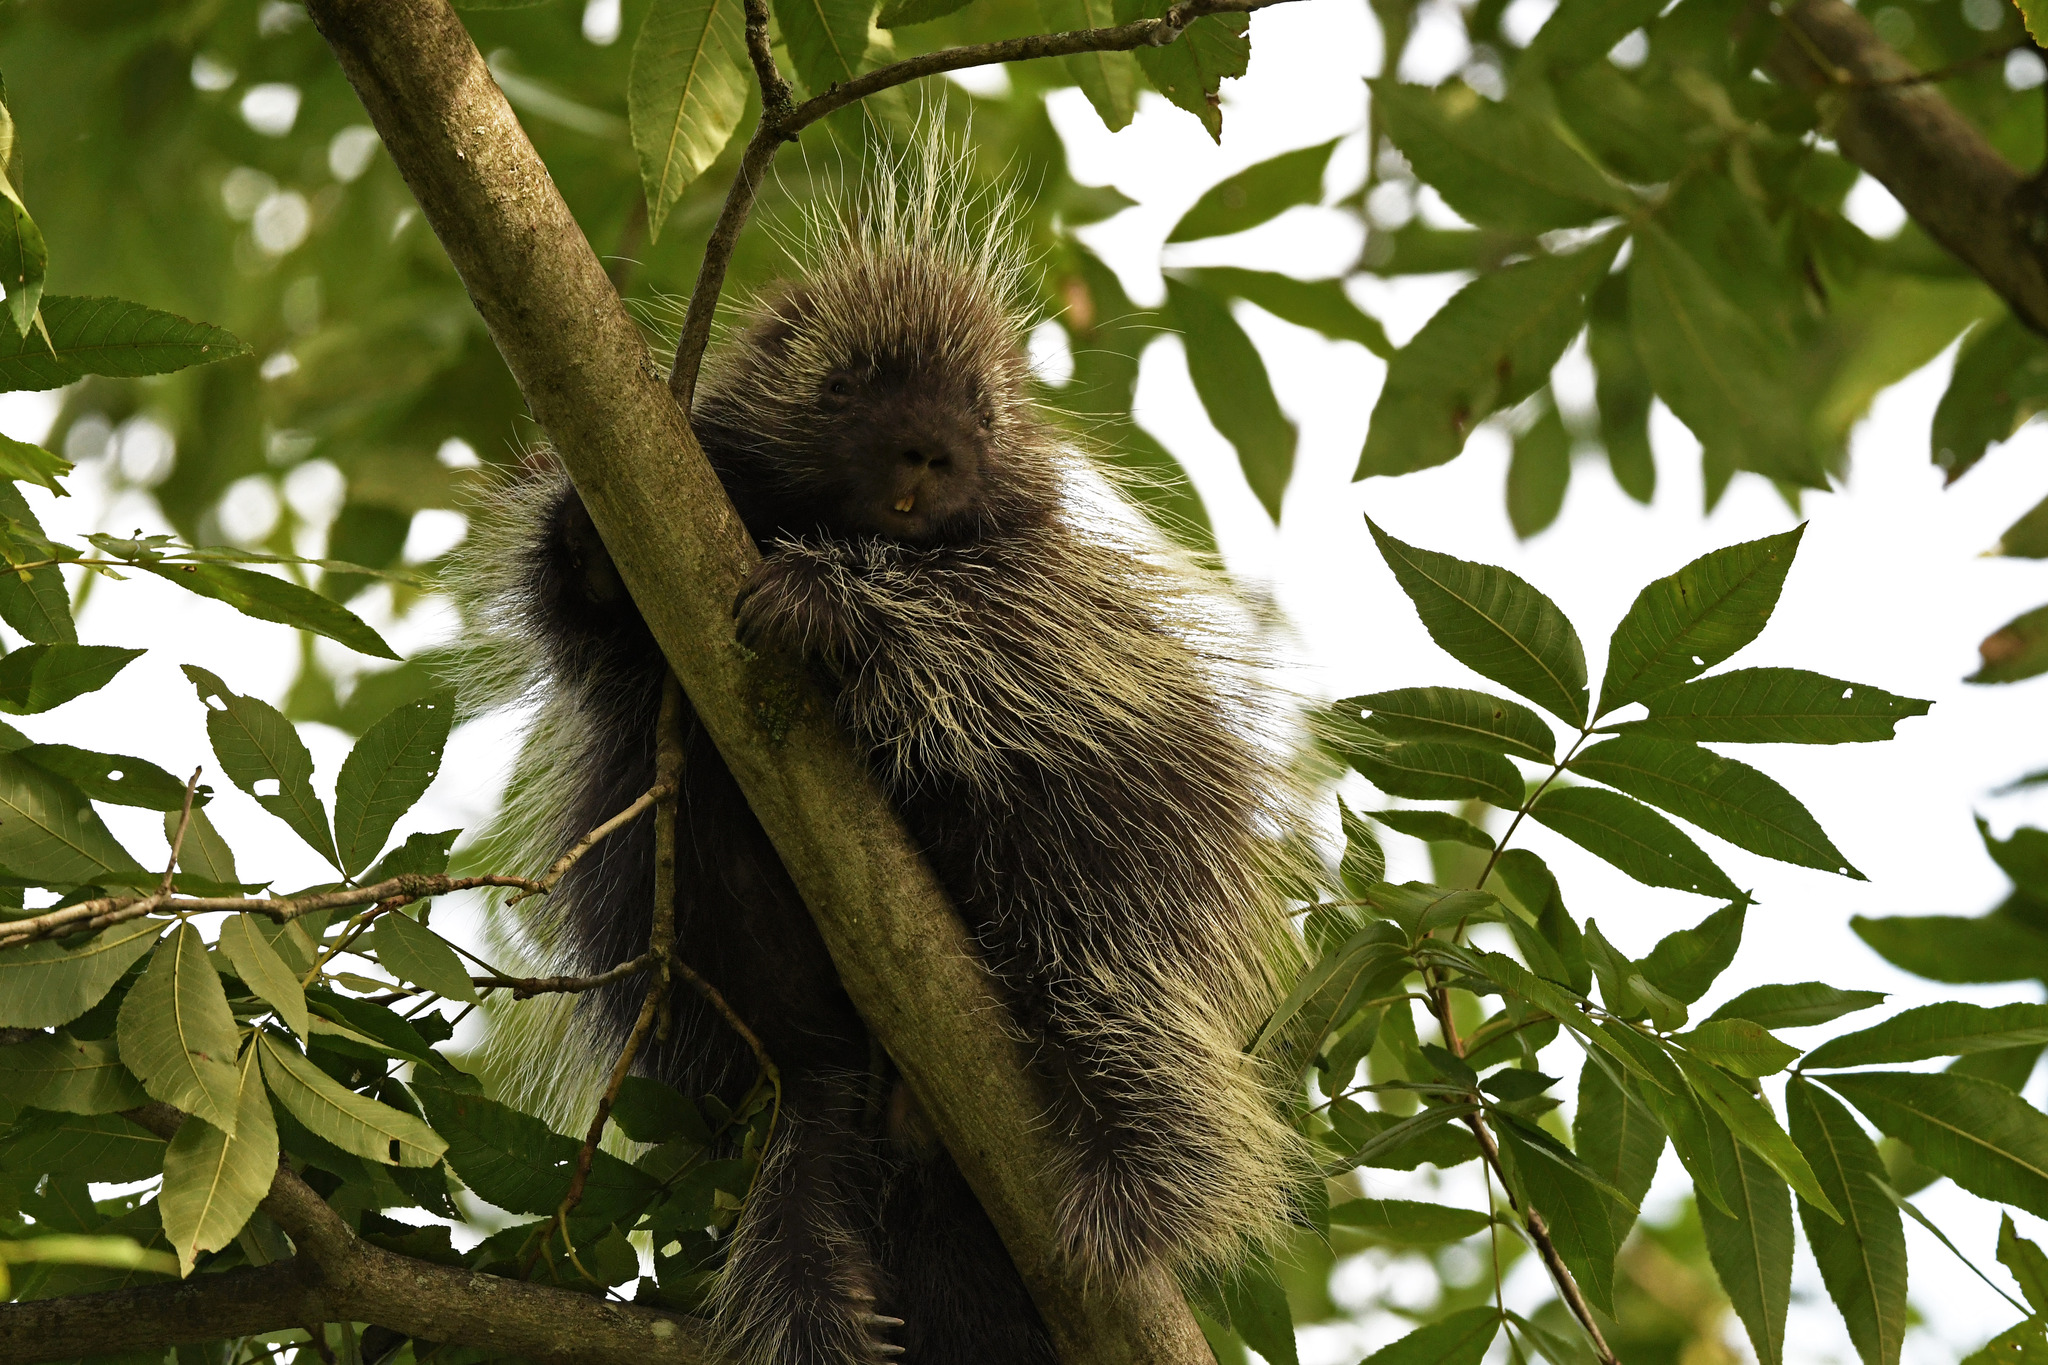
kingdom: Animalia
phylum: Chordata
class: Mammalia
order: Rodentia
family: Erethizontidae
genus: Erethizon
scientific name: Erethizon dorsatus
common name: North american porcupine
